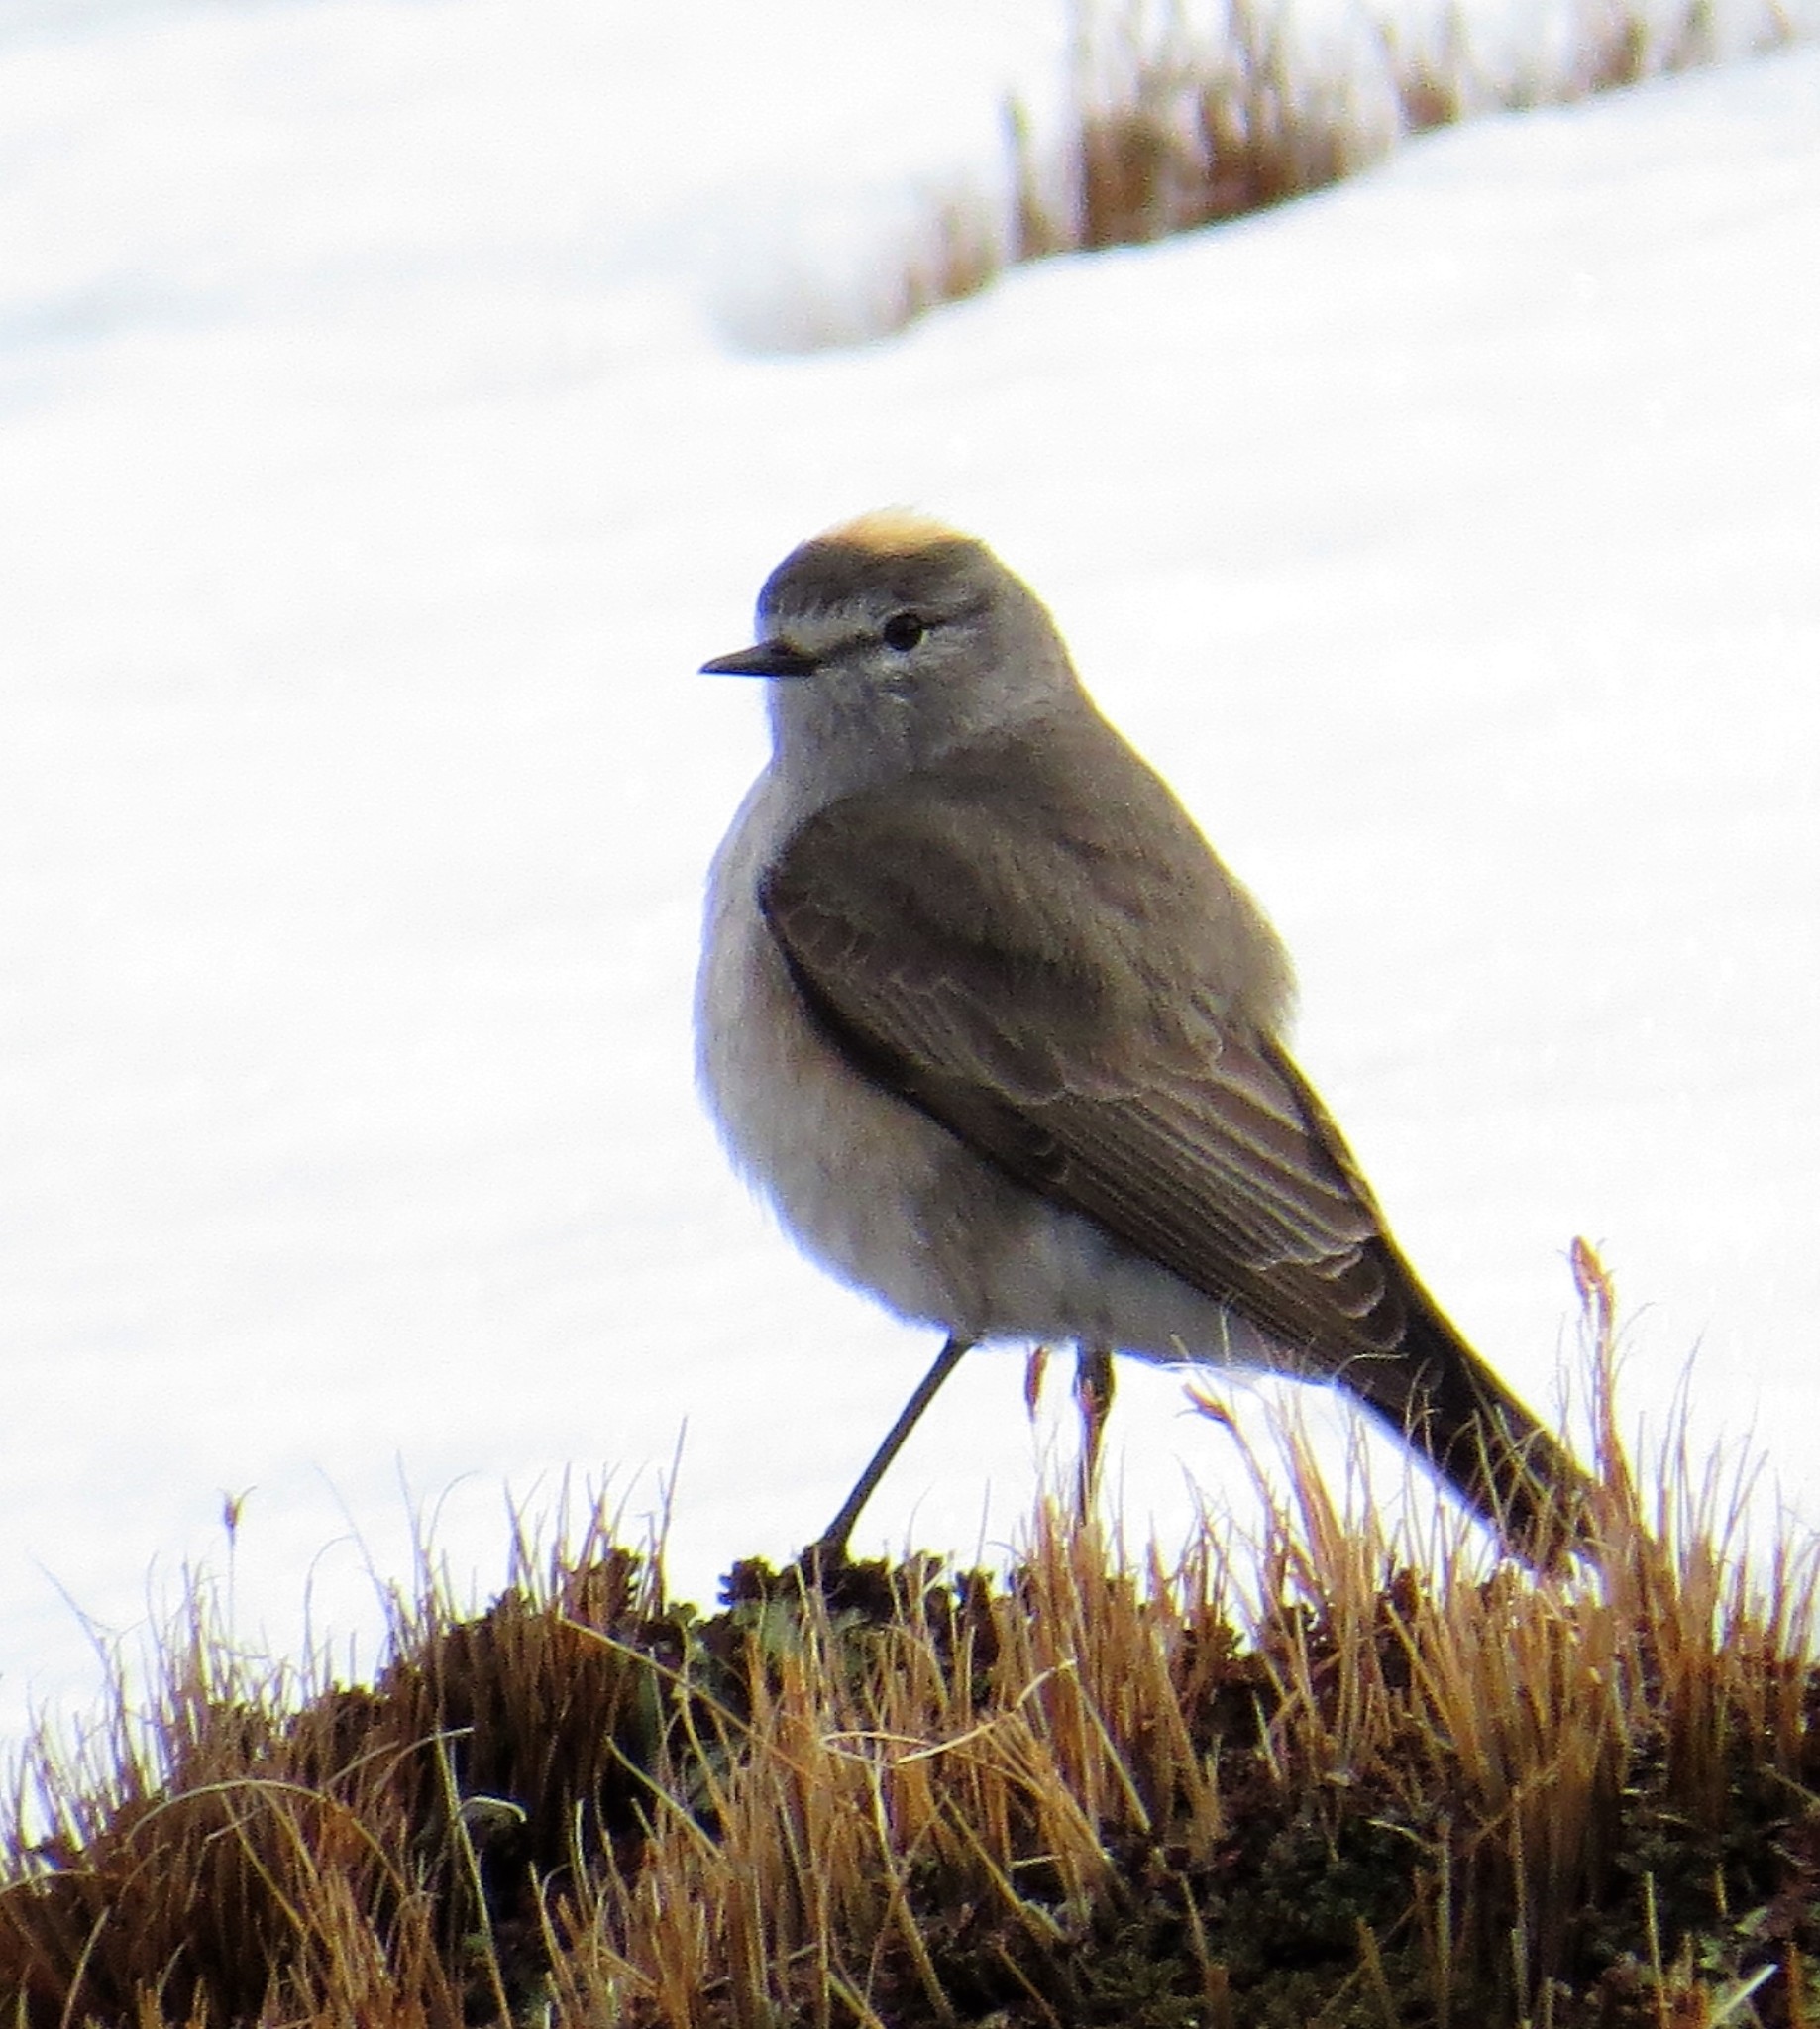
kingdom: Animalia
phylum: Chordata
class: Aves
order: Passeriformes
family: Tyrannidae
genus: Muscisaxicola
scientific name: Muscisaxicola flavinucha
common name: Ochre-naped ground tyrant
